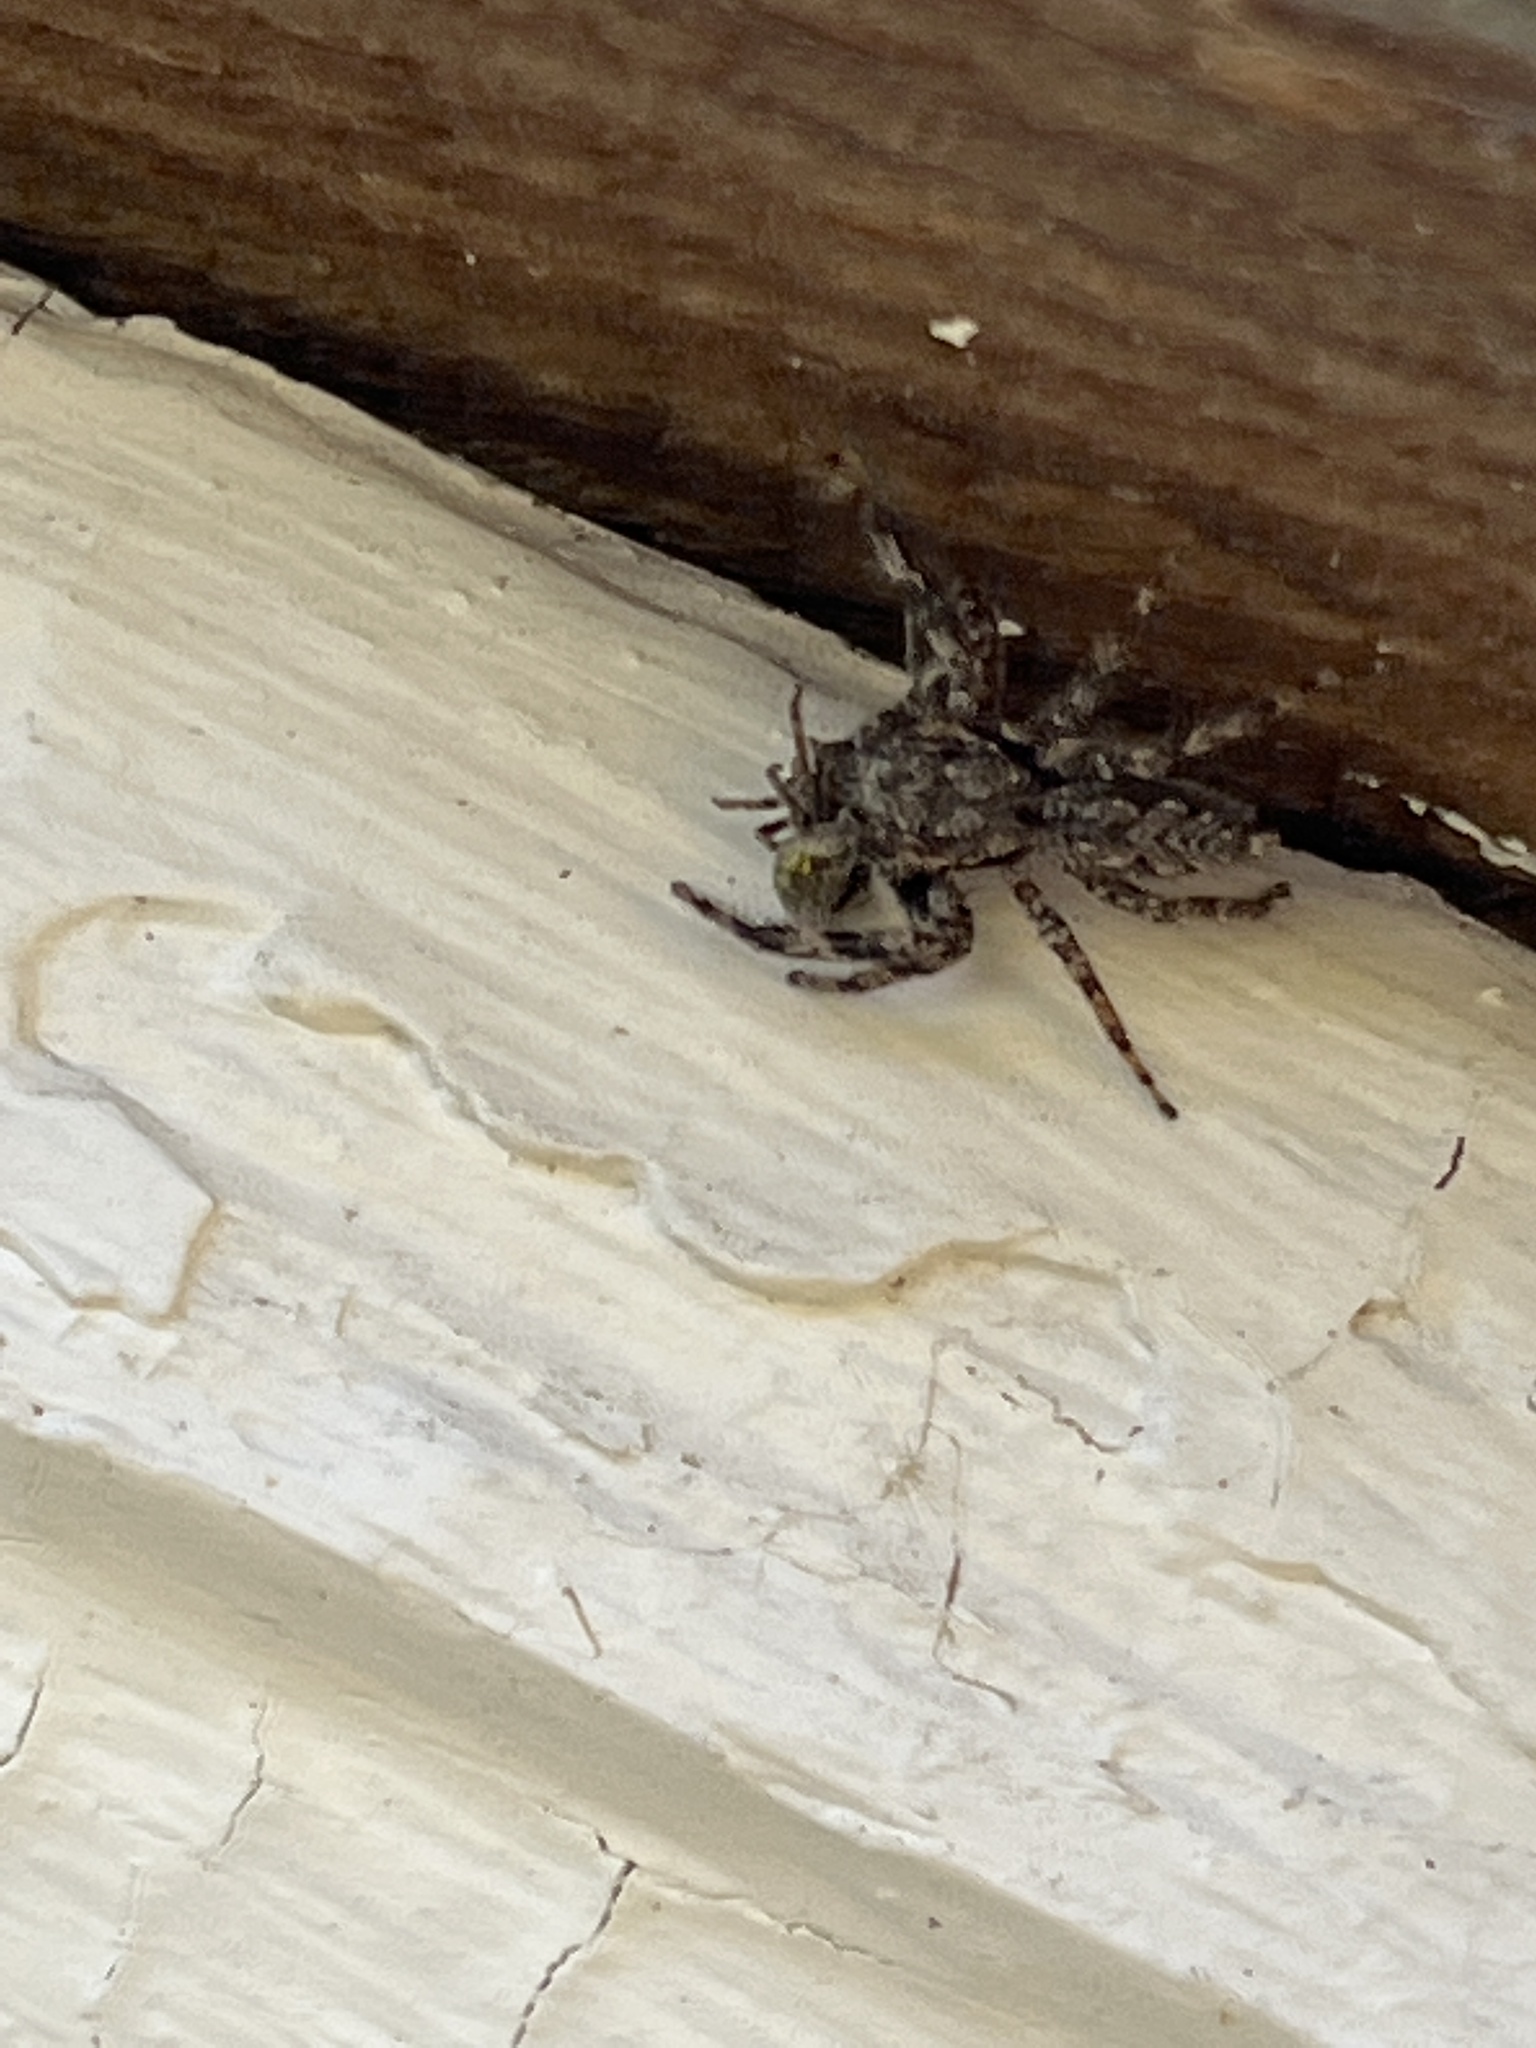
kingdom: Animalia
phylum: Arthropoda
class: Arachnida
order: Araneae
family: Salticidae
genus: Platycryptus
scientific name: Platycryptus undatus
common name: Tan jumping spider
